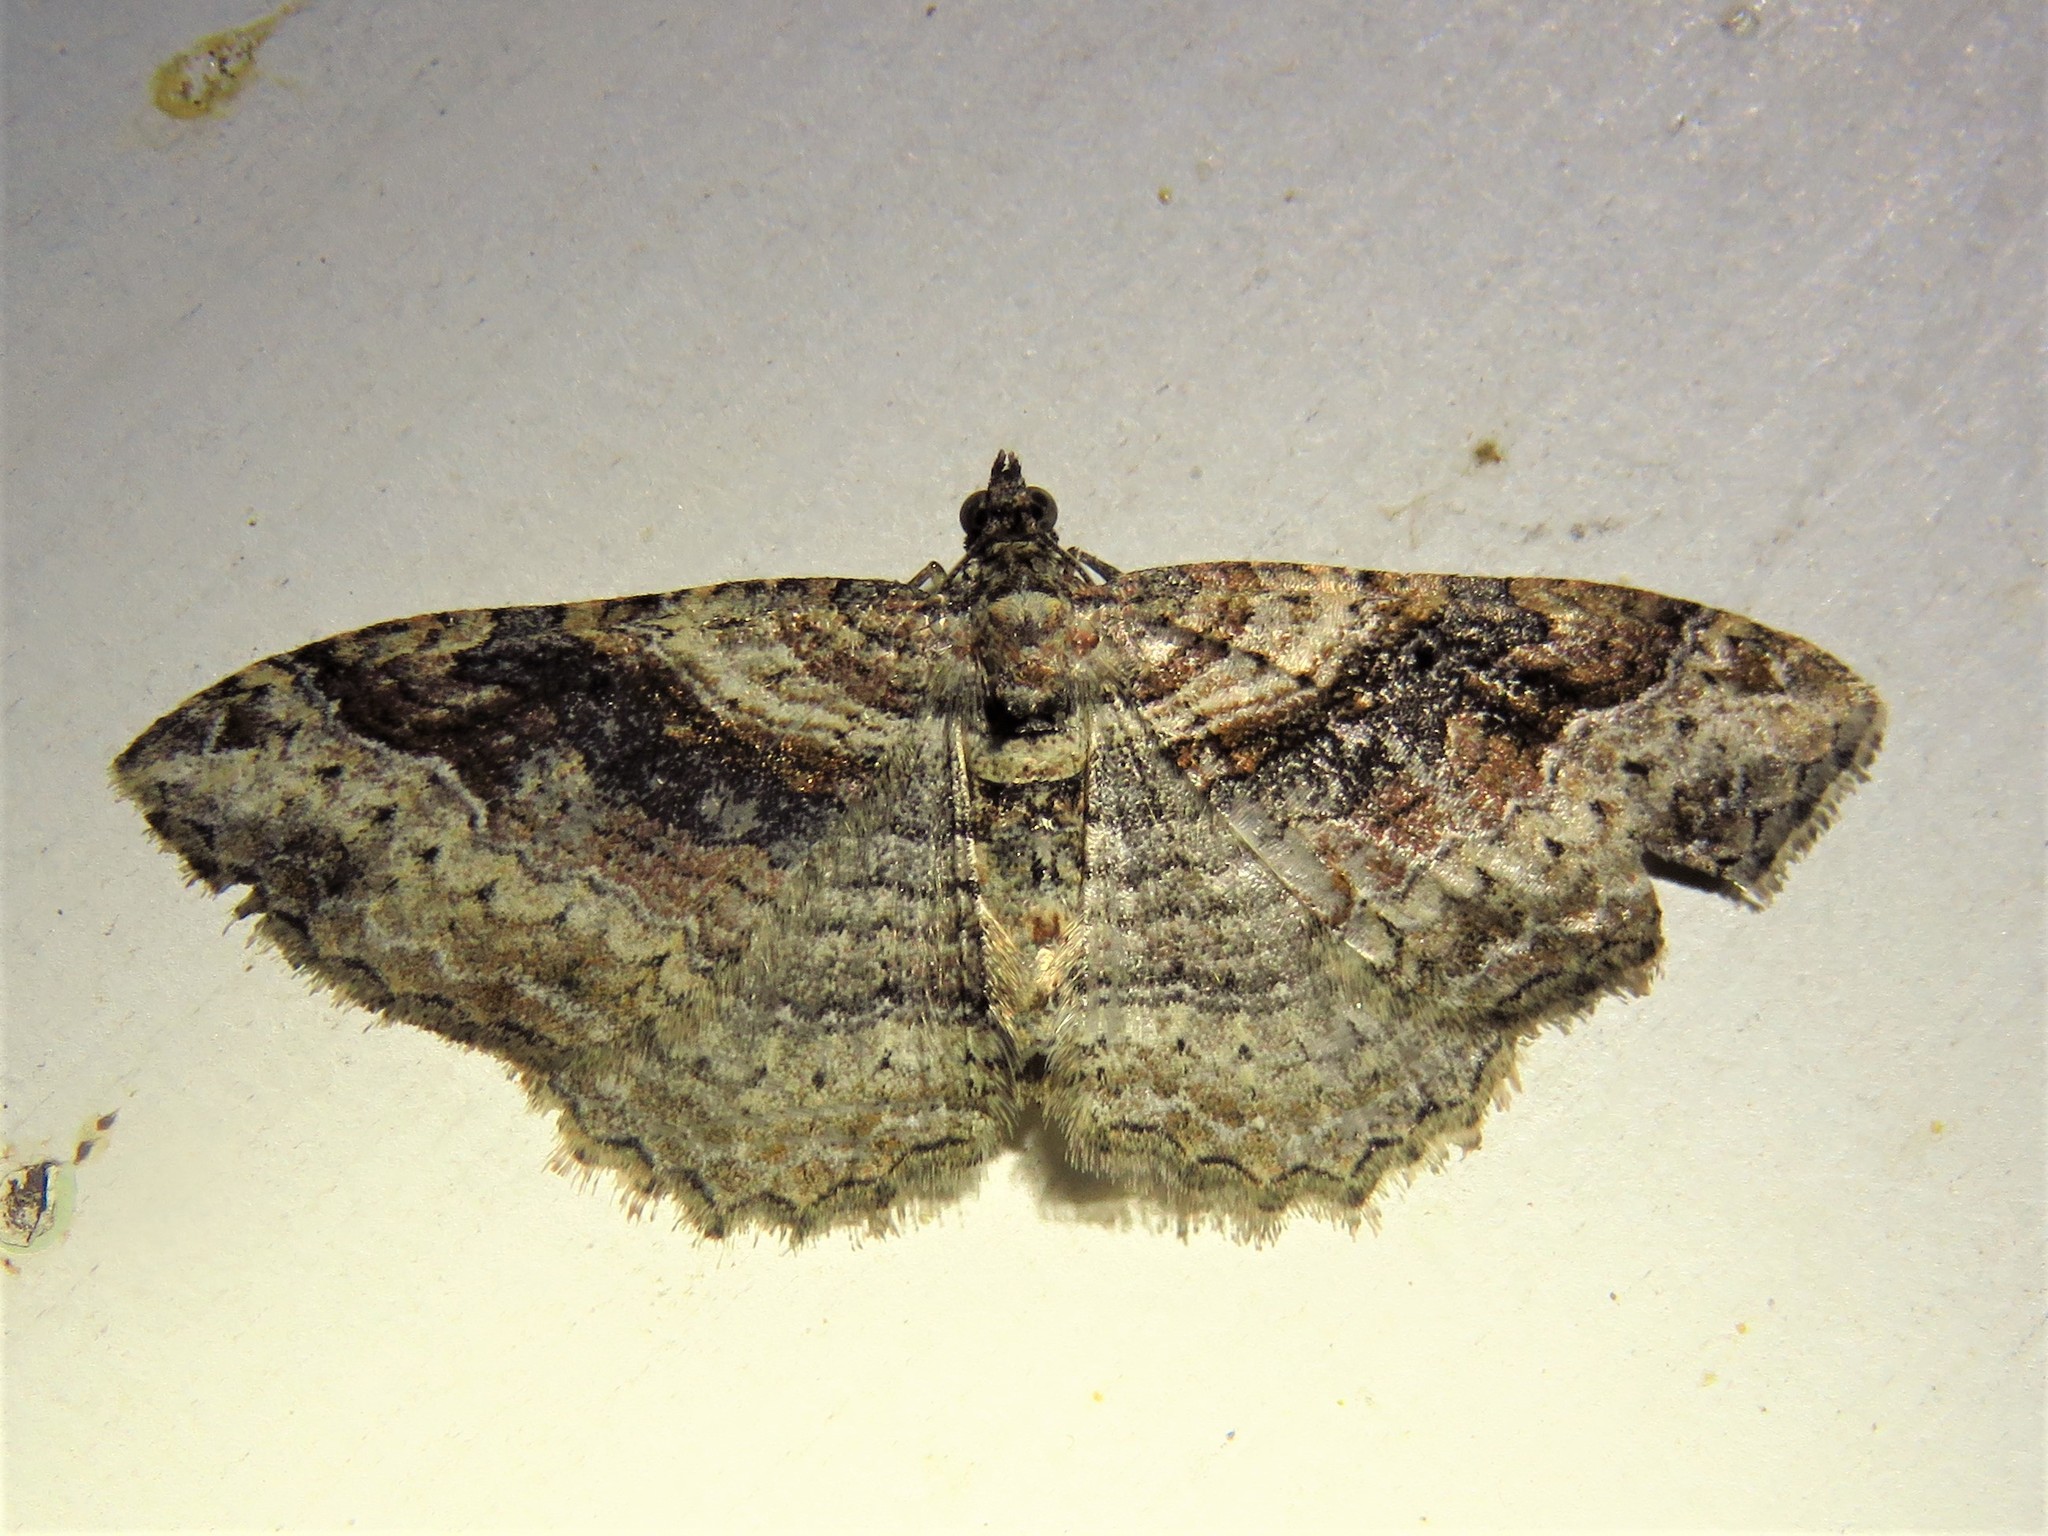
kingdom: Animalia
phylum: Arthropoda
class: Insecta
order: Lepidoptera
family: Geometridae
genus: Costaconvexa
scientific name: Costaconvexa centrostrigaria
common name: Bent-line carpet
